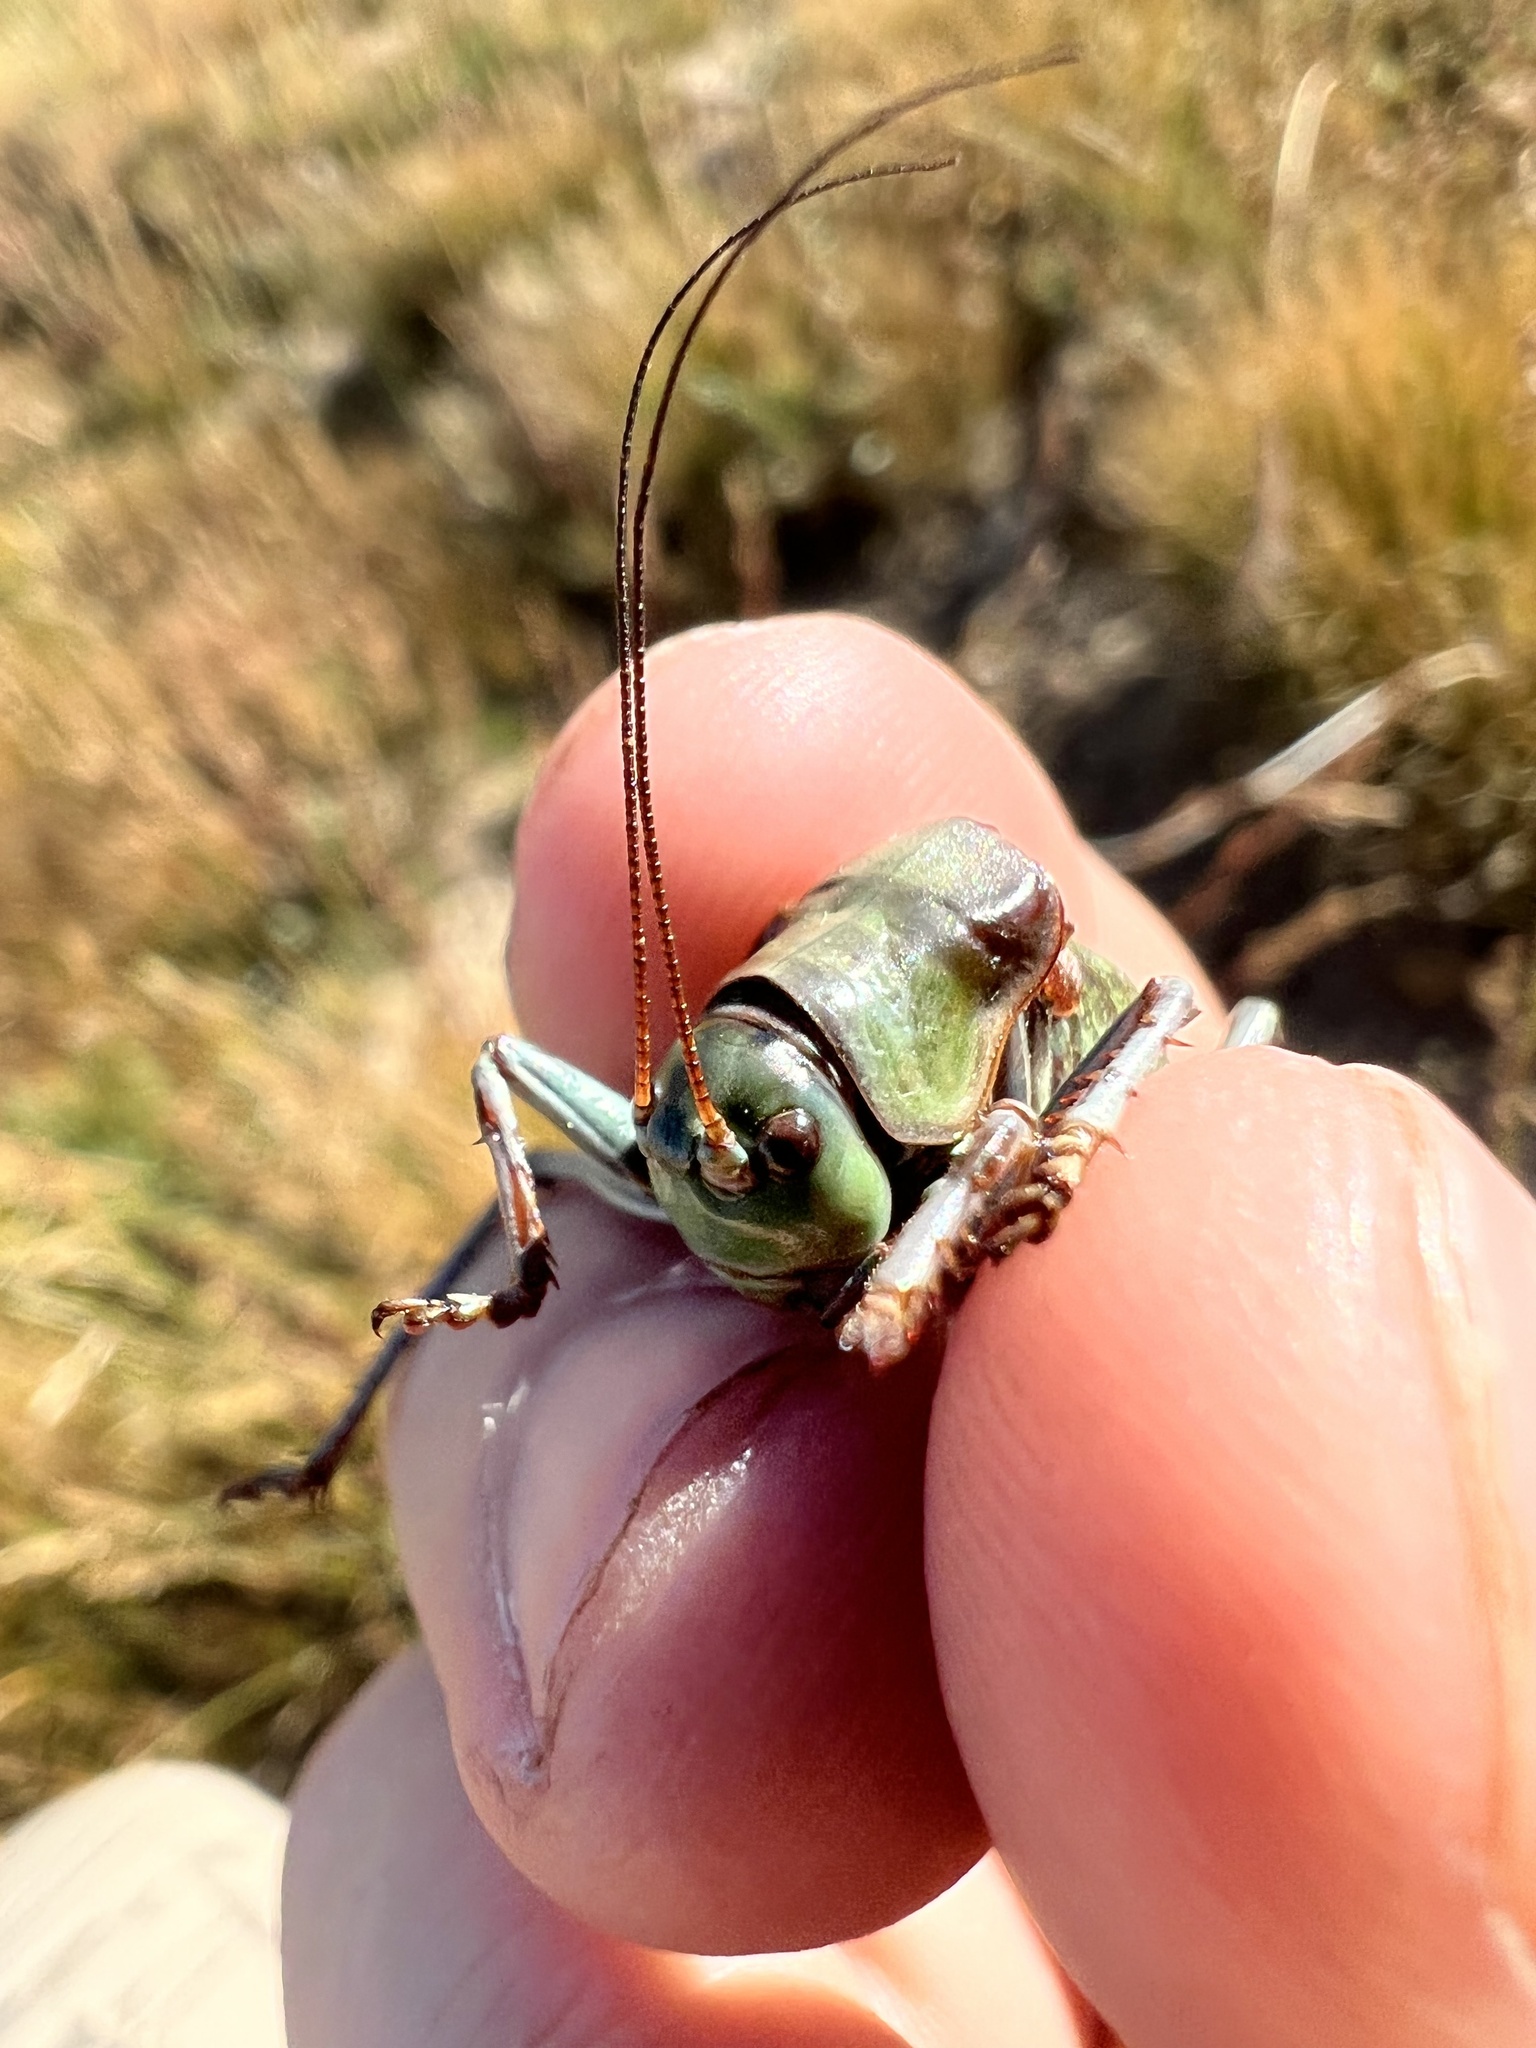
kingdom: Animalia
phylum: Arthropoda
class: Insecta
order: Orthoptera
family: Tettigoniidae
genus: Anabrus
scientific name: Anabrus simplex
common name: Mormon cricket
